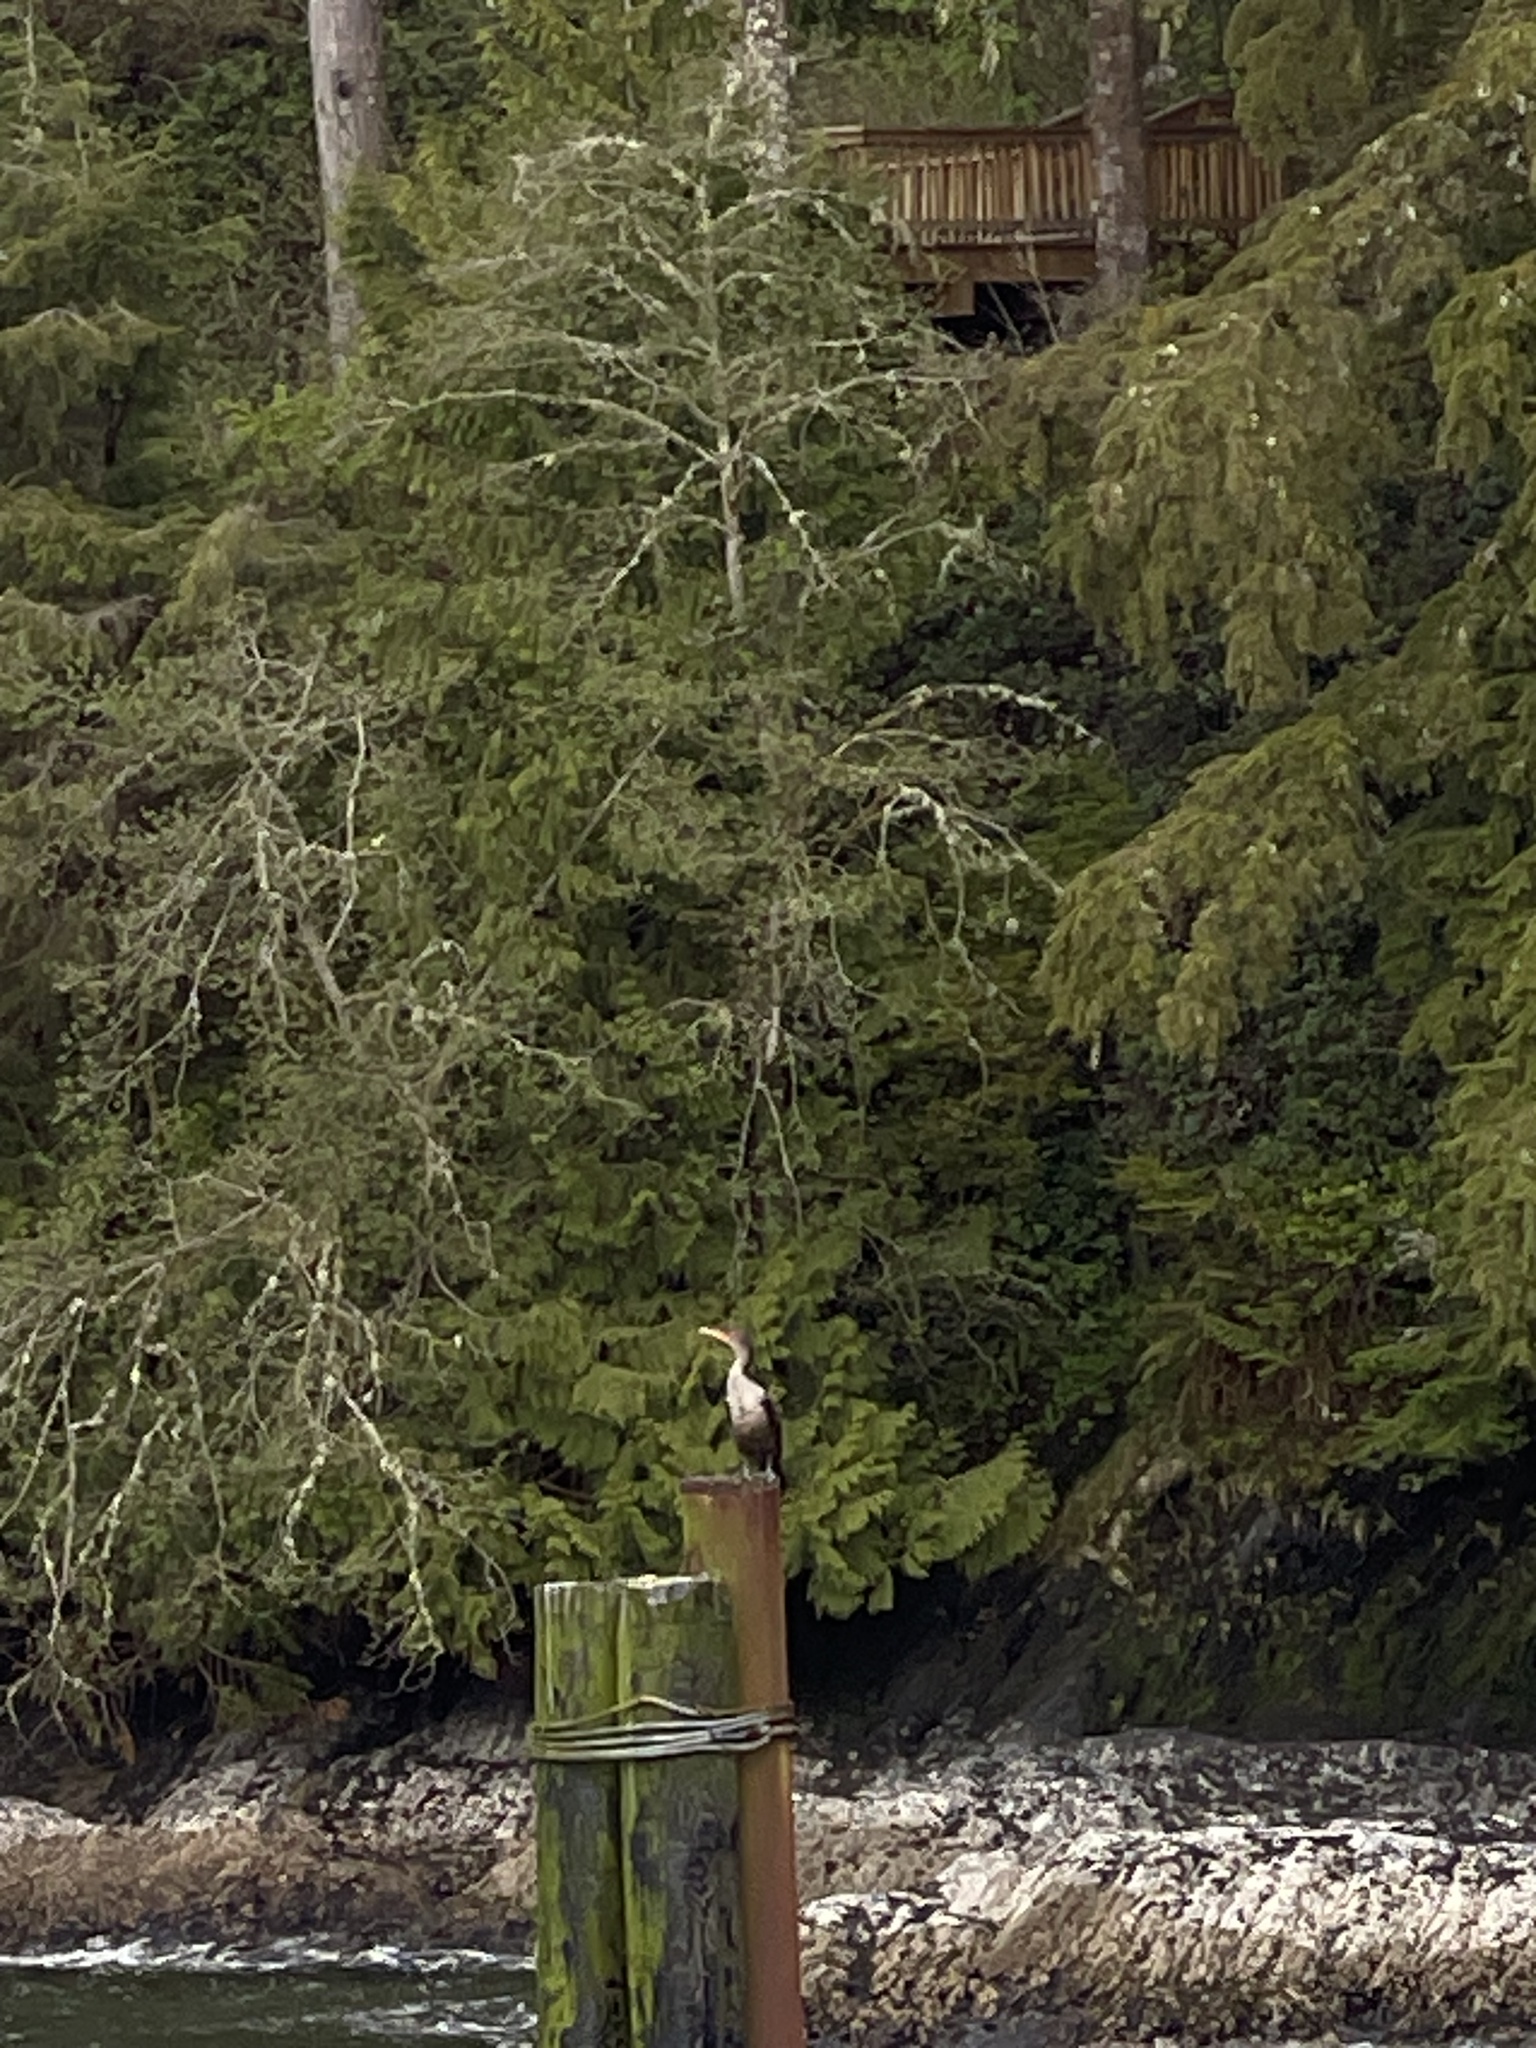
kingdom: Animalia
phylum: Chordata
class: Aves
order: Suliformes
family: Phalacrocoracidae
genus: Phalacrocorax
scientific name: Phalacrocorax auritus
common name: Double-crested cormorant
